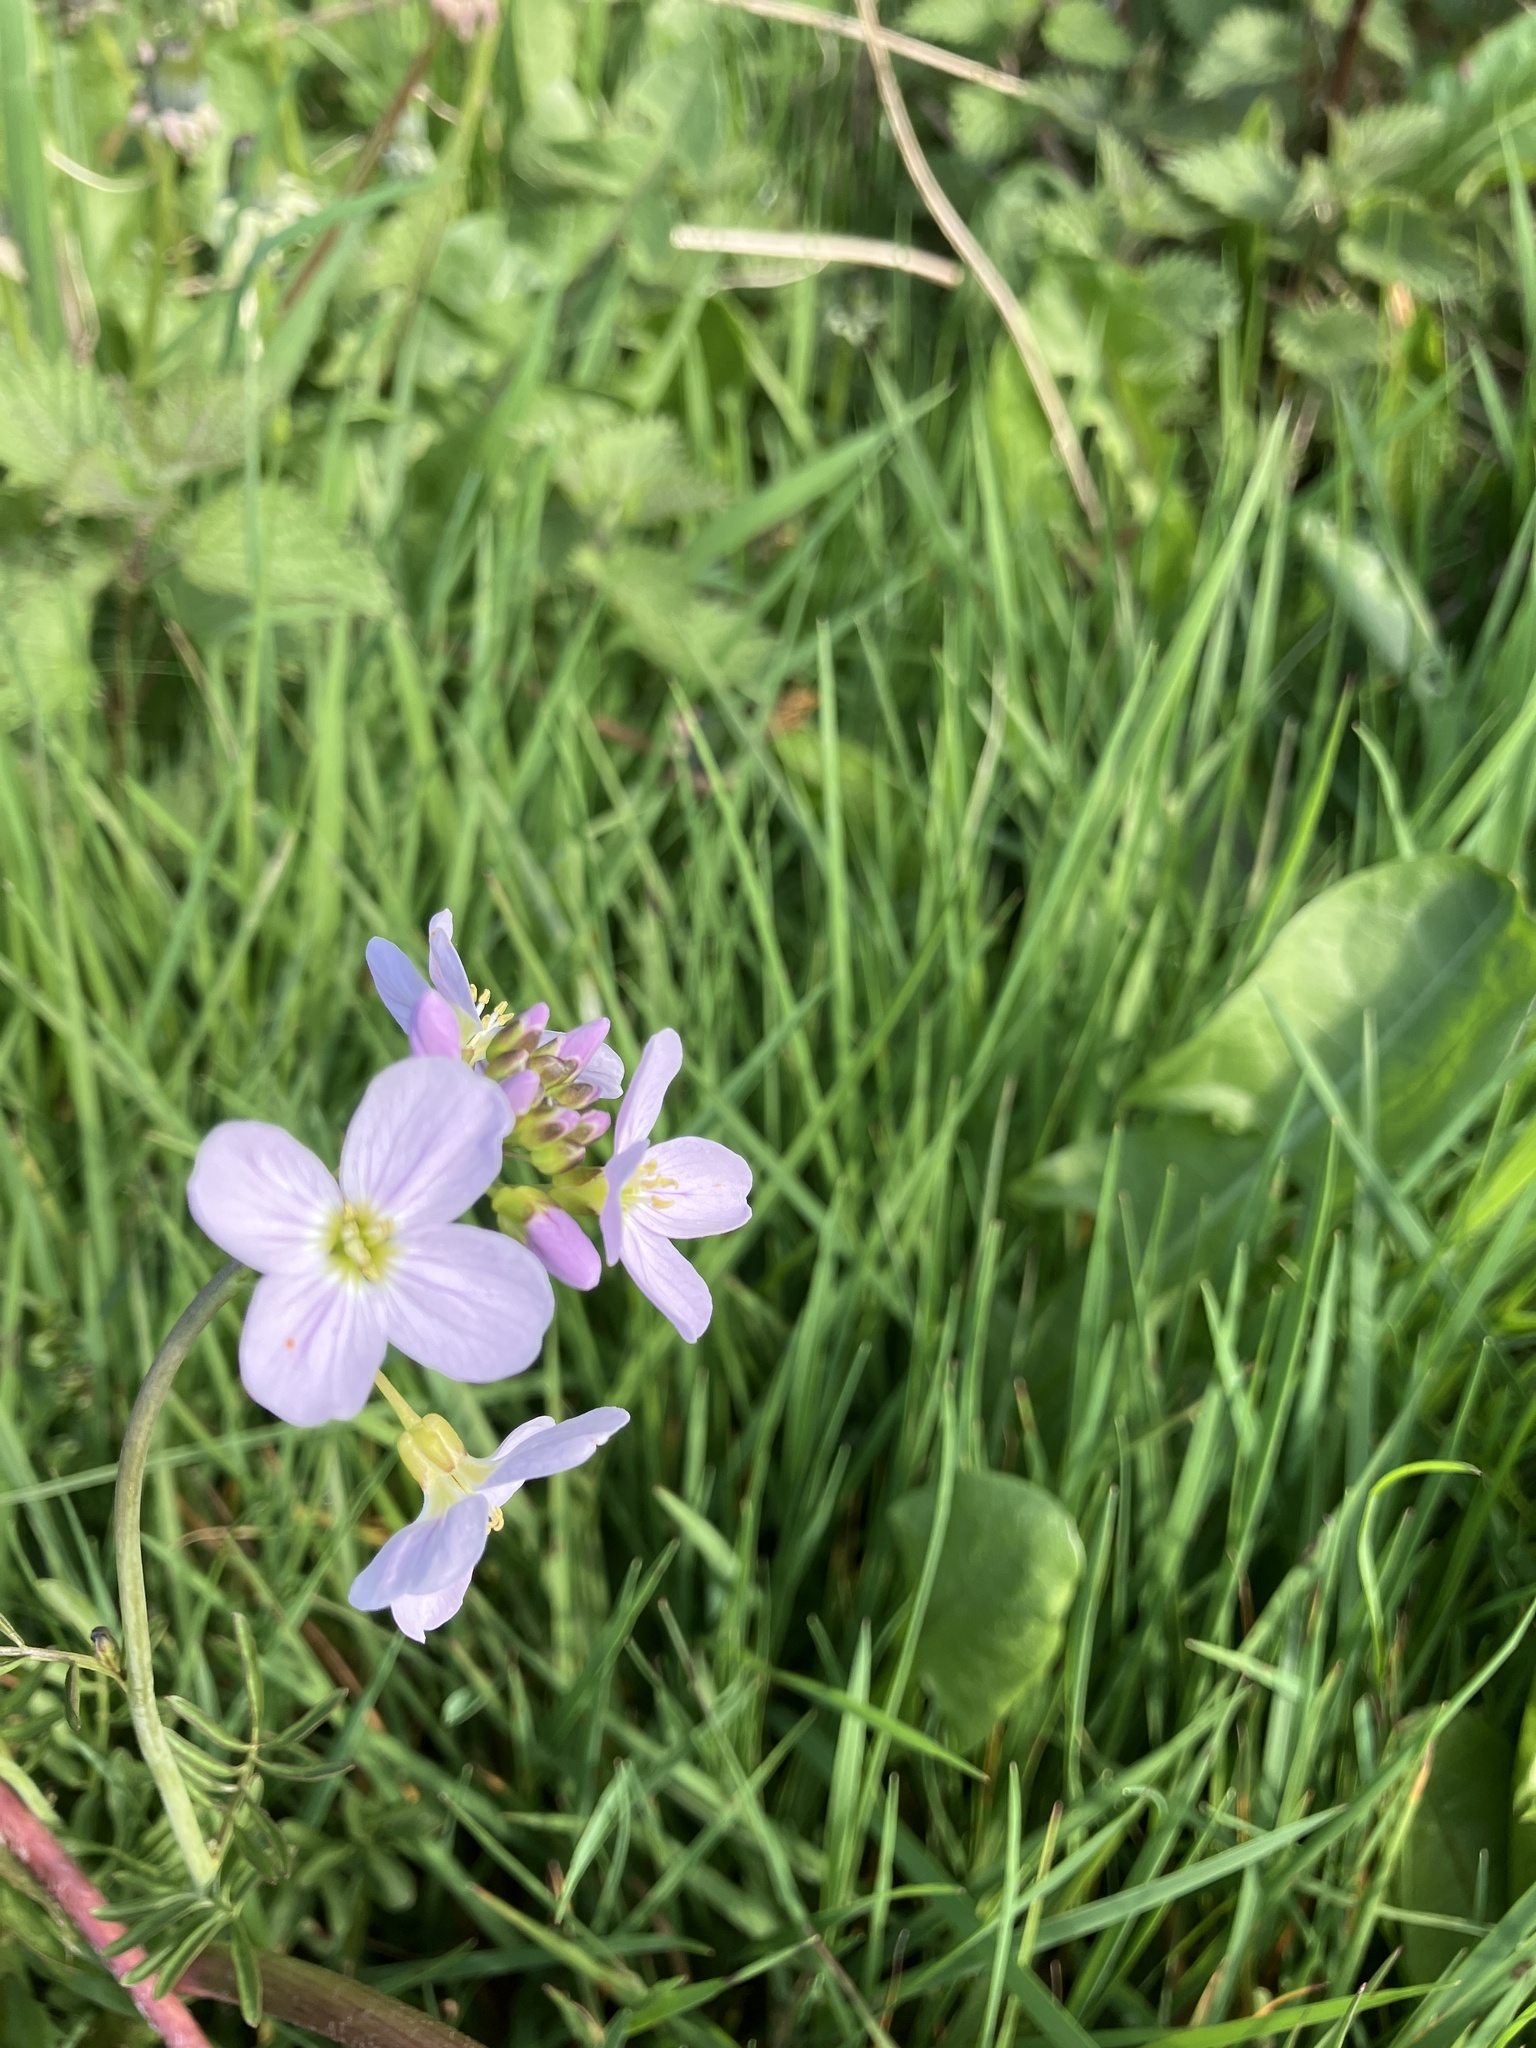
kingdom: Plantae
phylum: Tracheophyta
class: Magnoliopsida
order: Brassicales
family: Brassicaceae
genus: Cardamine
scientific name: Cardamine pratensis
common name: Cuckoo flower
